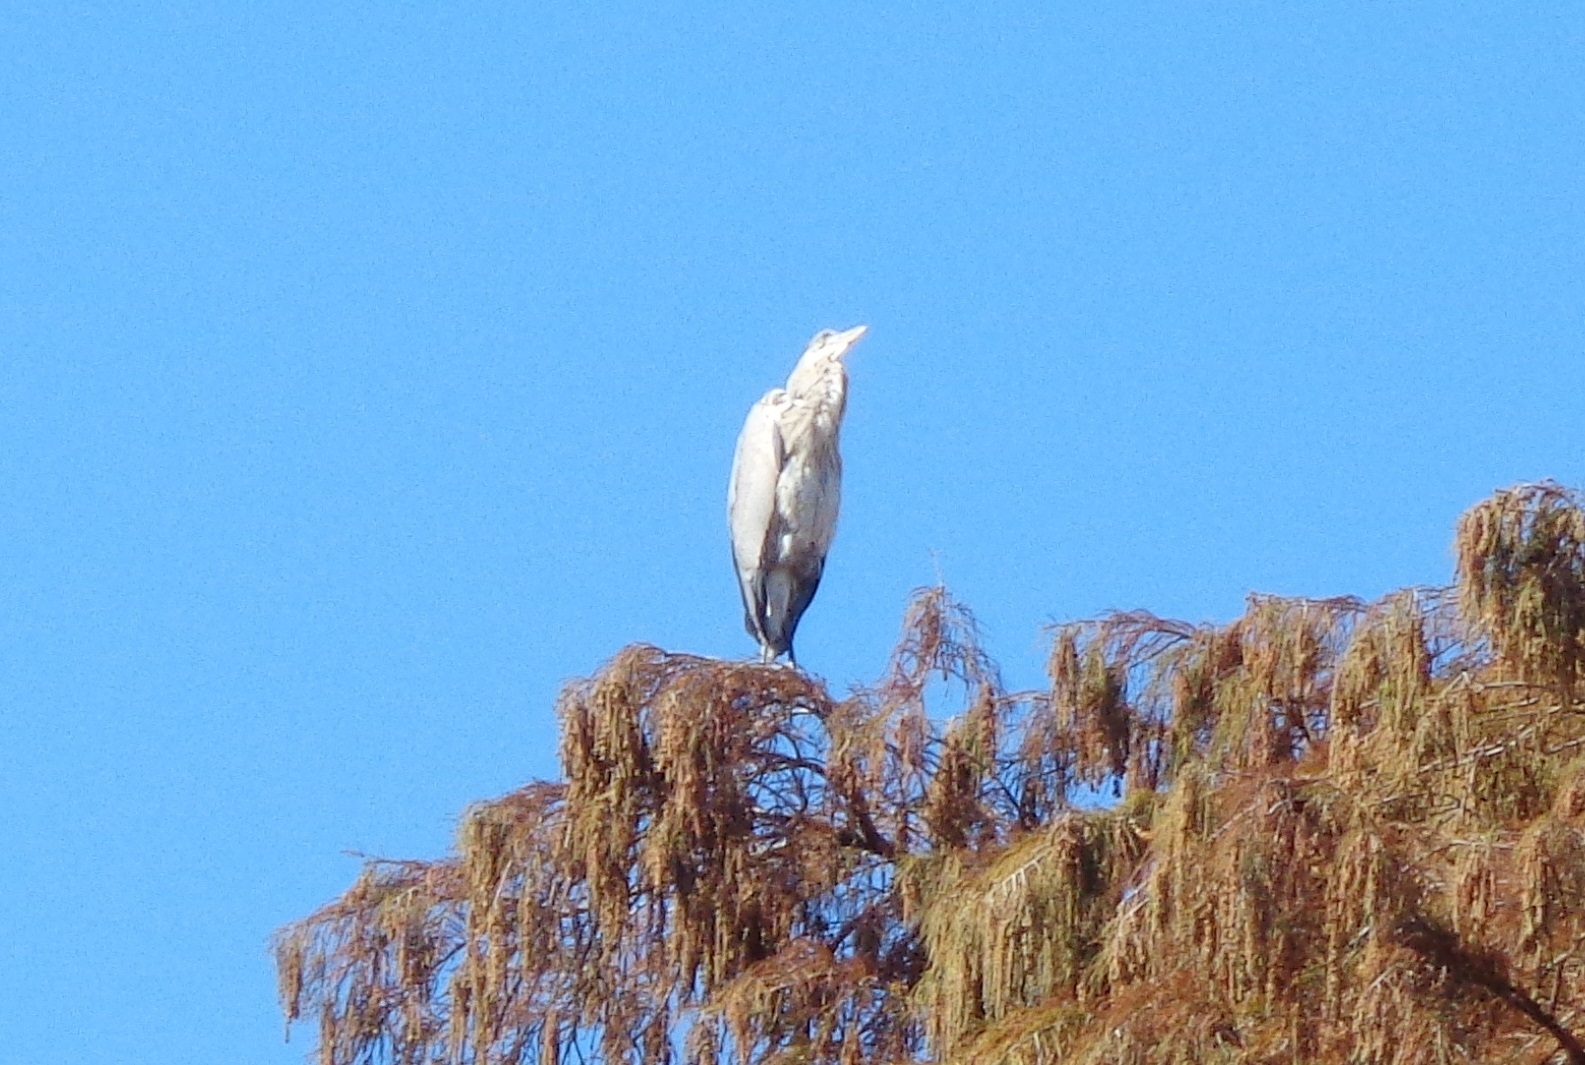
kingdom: Animalia
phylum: Chordata
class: Aves
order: Pelecaniformes
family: Ardeidae
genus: Ardea
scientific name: Ardea herodias
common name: Great blue heron
